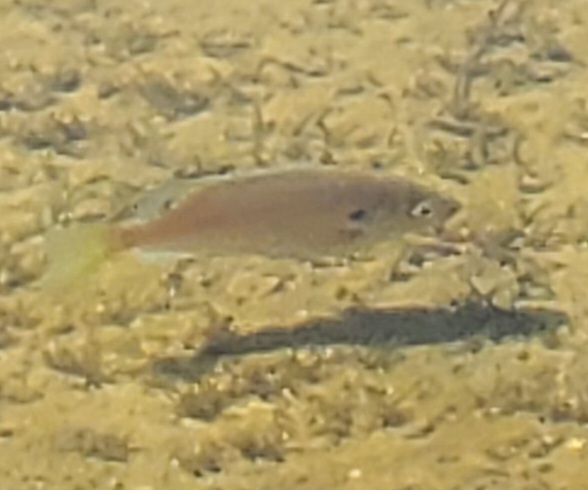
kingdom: Animalia
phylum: Chordata
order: Perciformes
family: Centrarchidae
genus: Lepomis
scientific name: Lepomis macrochirus
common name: Bluegill
